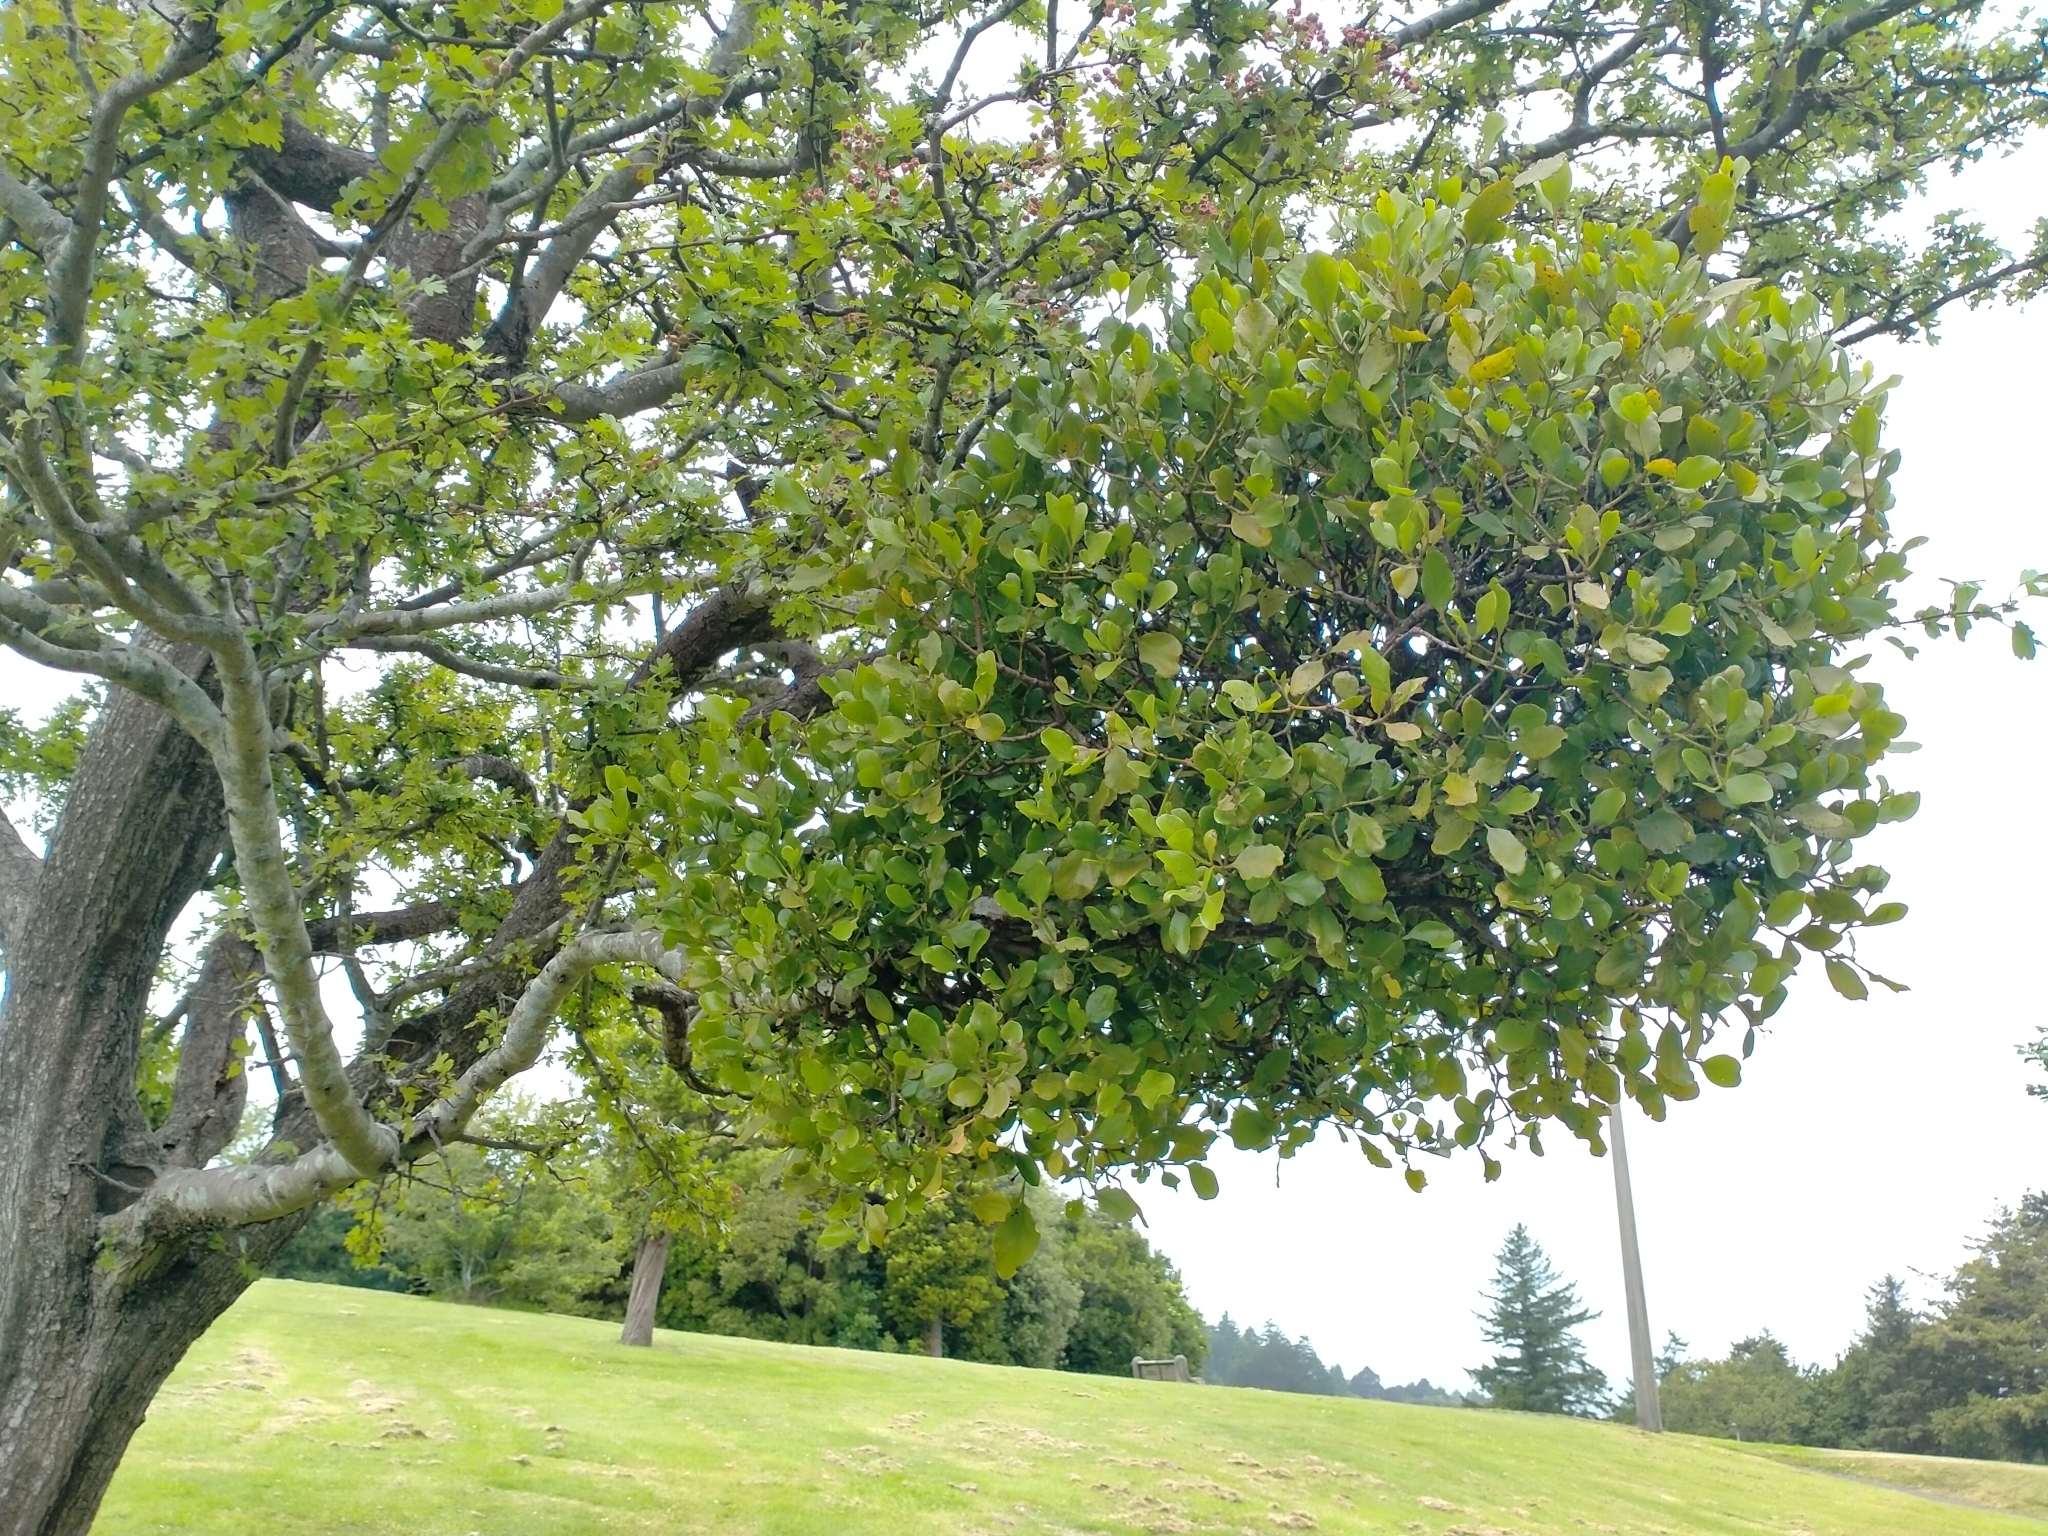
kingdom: Plantae
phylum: Tracheophyta
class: Magnoliopsida
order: Santalales
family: Loranthaceae
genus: Ileostylus
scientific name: Ileostylus micranthus
